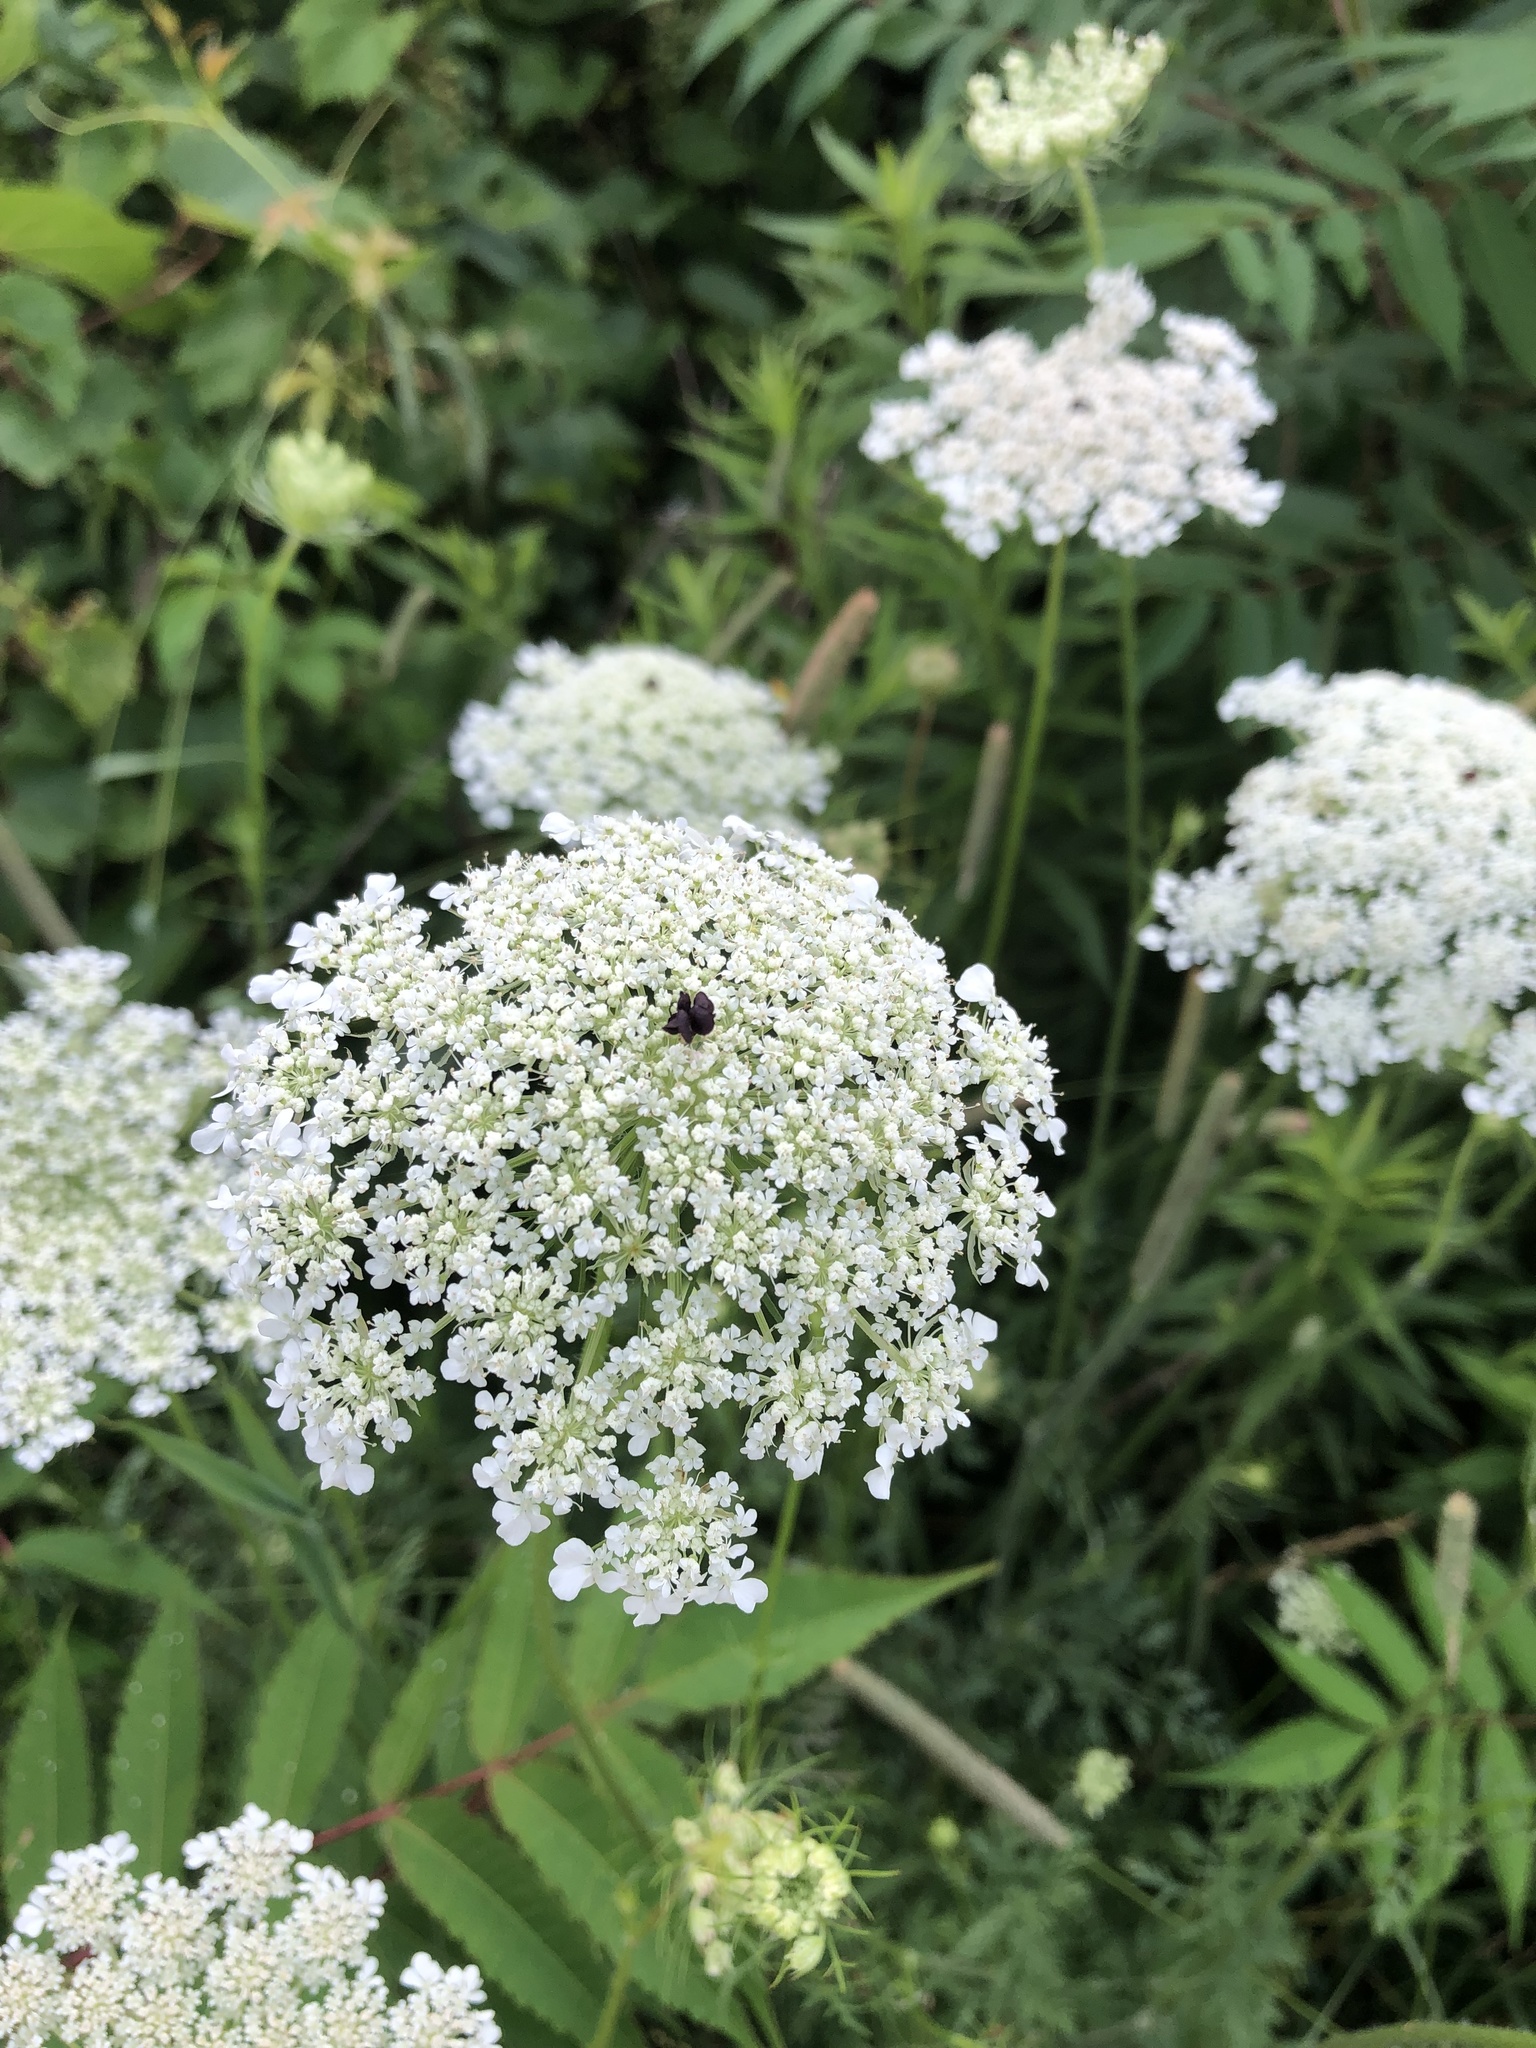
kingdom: Plantae
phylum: Tracheophyta
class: Magnoliopsida
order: Apiales
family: Apiaceae
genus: Daucus
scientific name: Daucus carota
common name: Wild carrot
